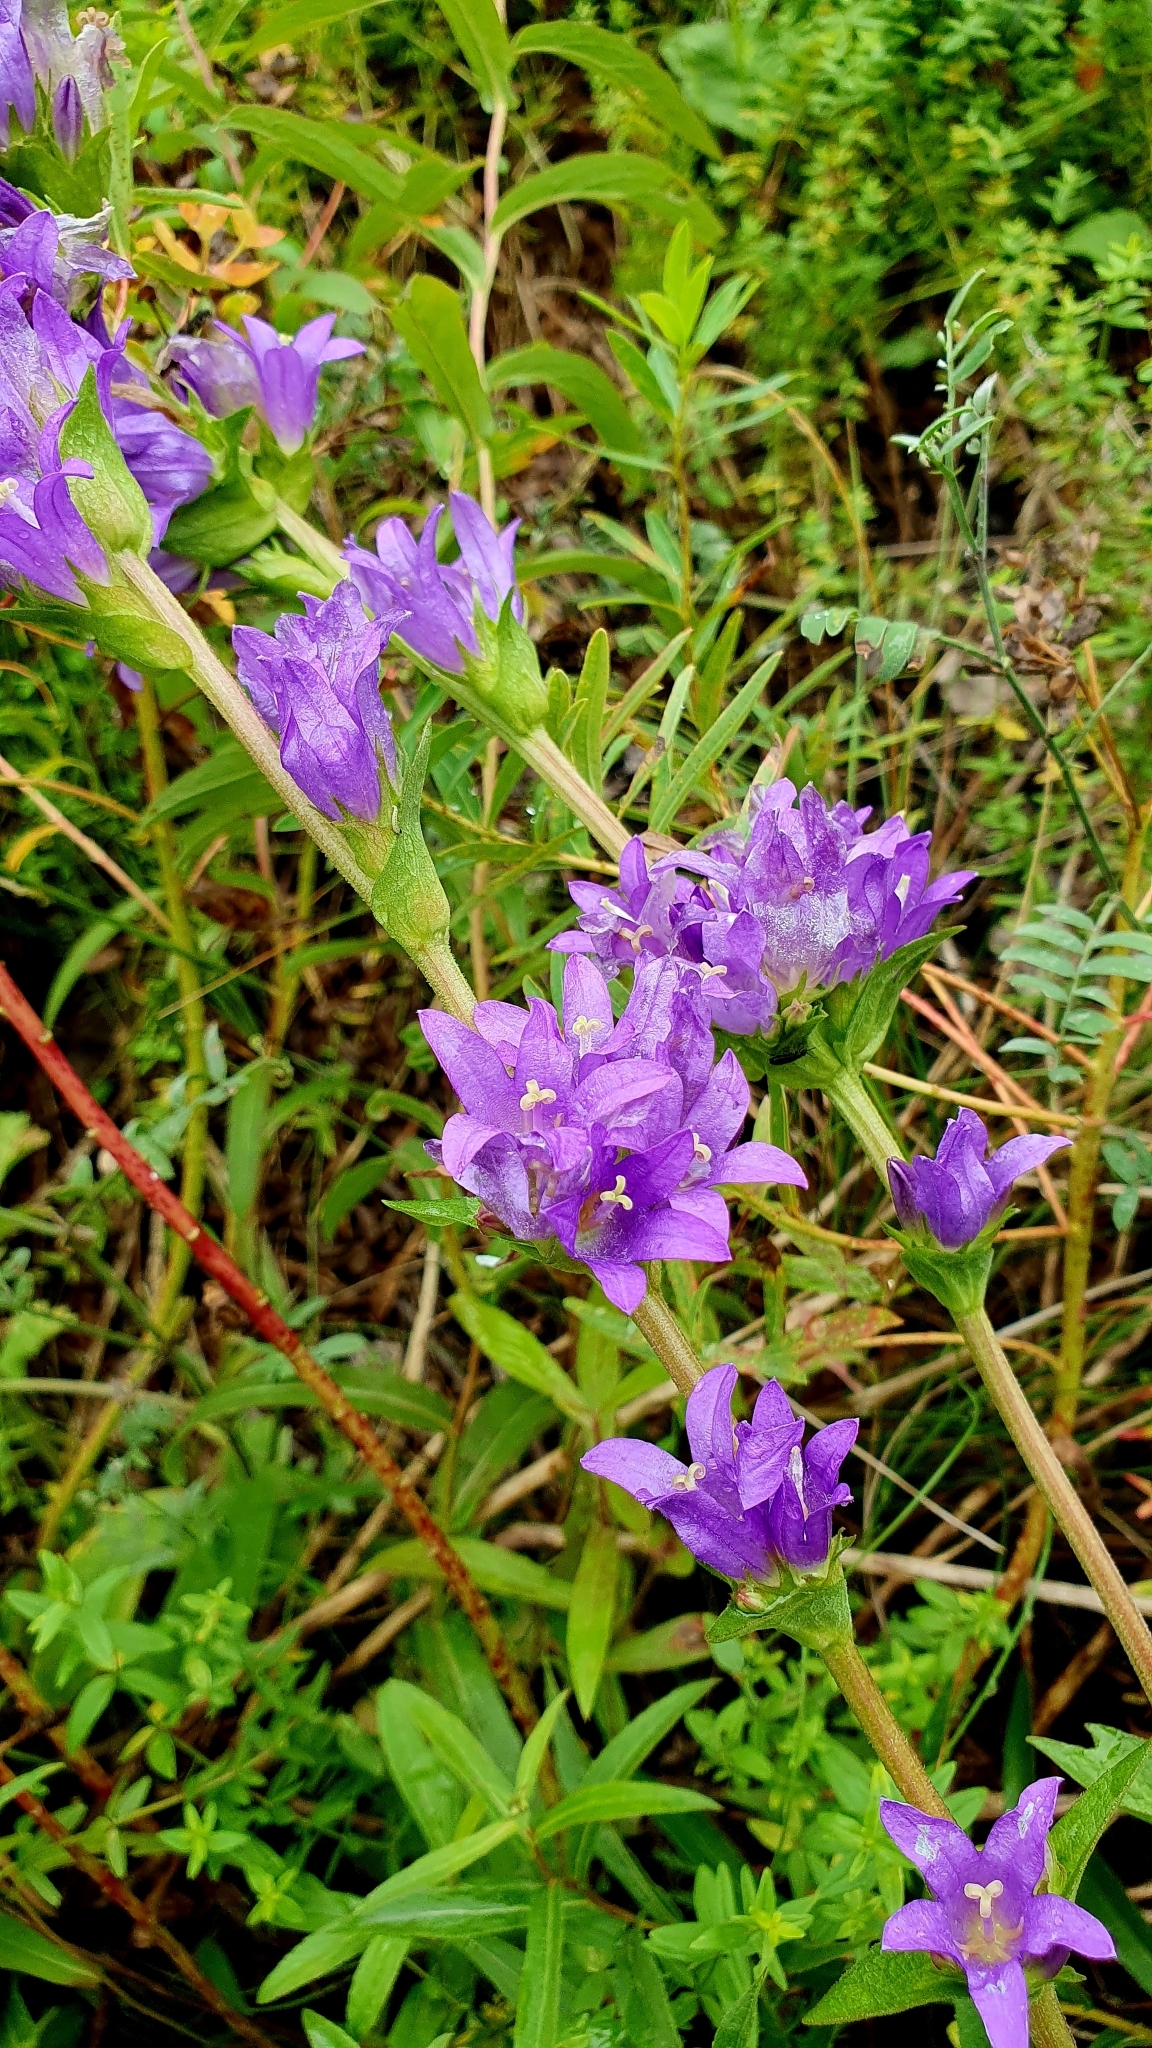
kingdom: Plantae
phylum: Tracheophyta
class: Magnoliopsida
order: Asterales
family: Campanulaceae
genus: Campanula
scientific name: Campanula glomerata
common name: Clustered bellflower
